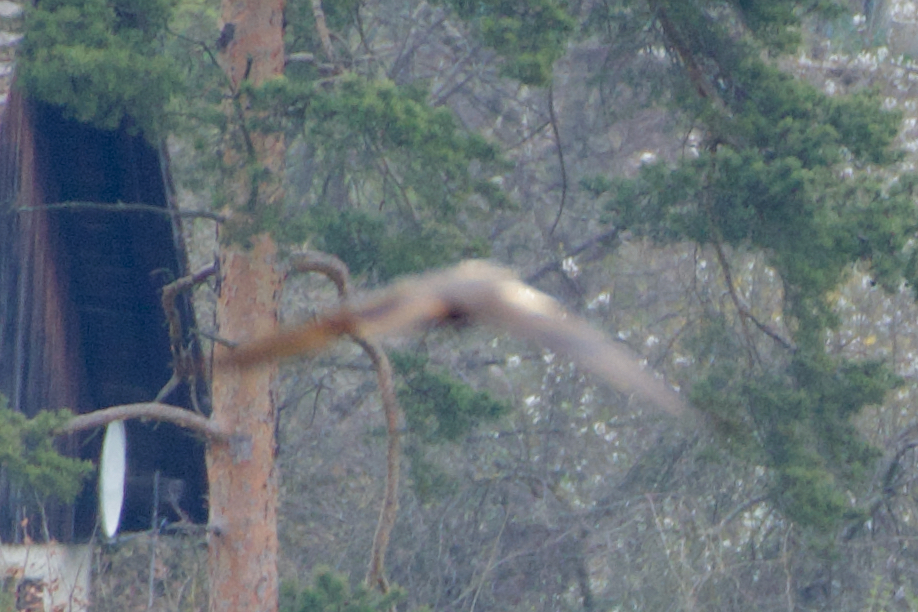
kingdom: Animalia
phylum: Chordata
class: Aves
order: Accipitriformes
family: Accipitridae
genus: Circus
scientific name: Circus aeruginosus
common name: Western marsh harrier
